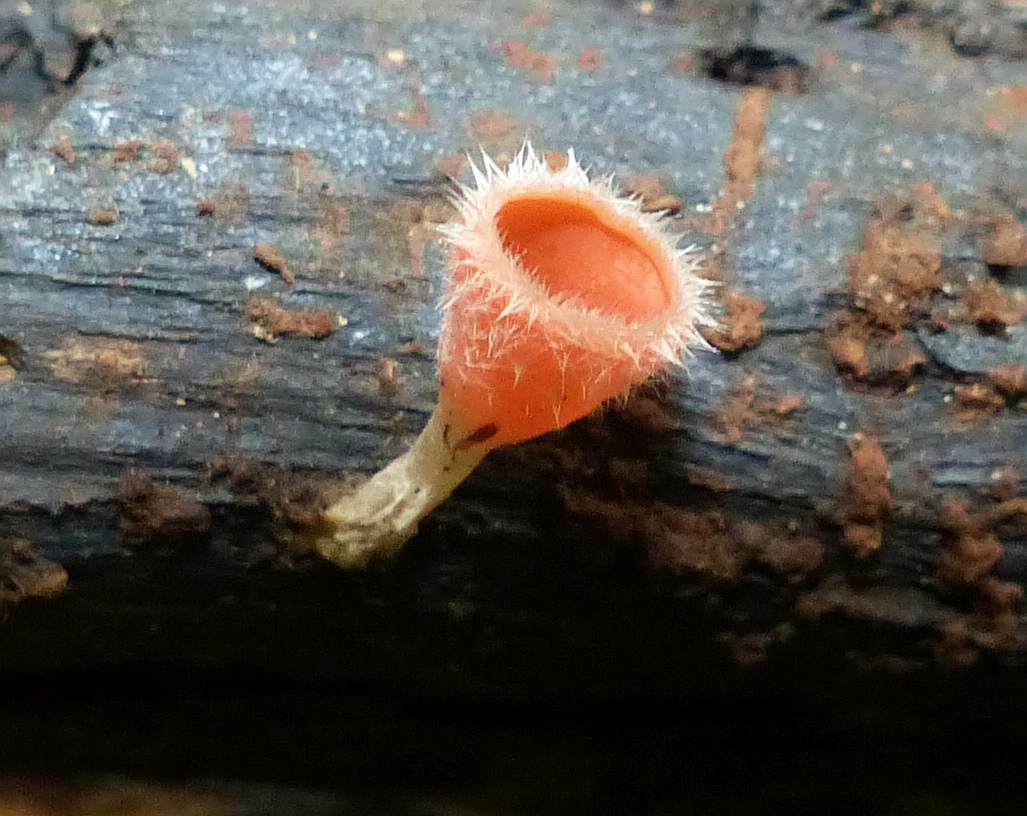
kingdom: Fungi
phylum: Ascomycota
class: Pezizomycetes
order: Pezizales
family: Sarcoscyphaceae
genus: Microstoma
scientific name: Microstoma floccosum
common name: Pink fringed faery cup
